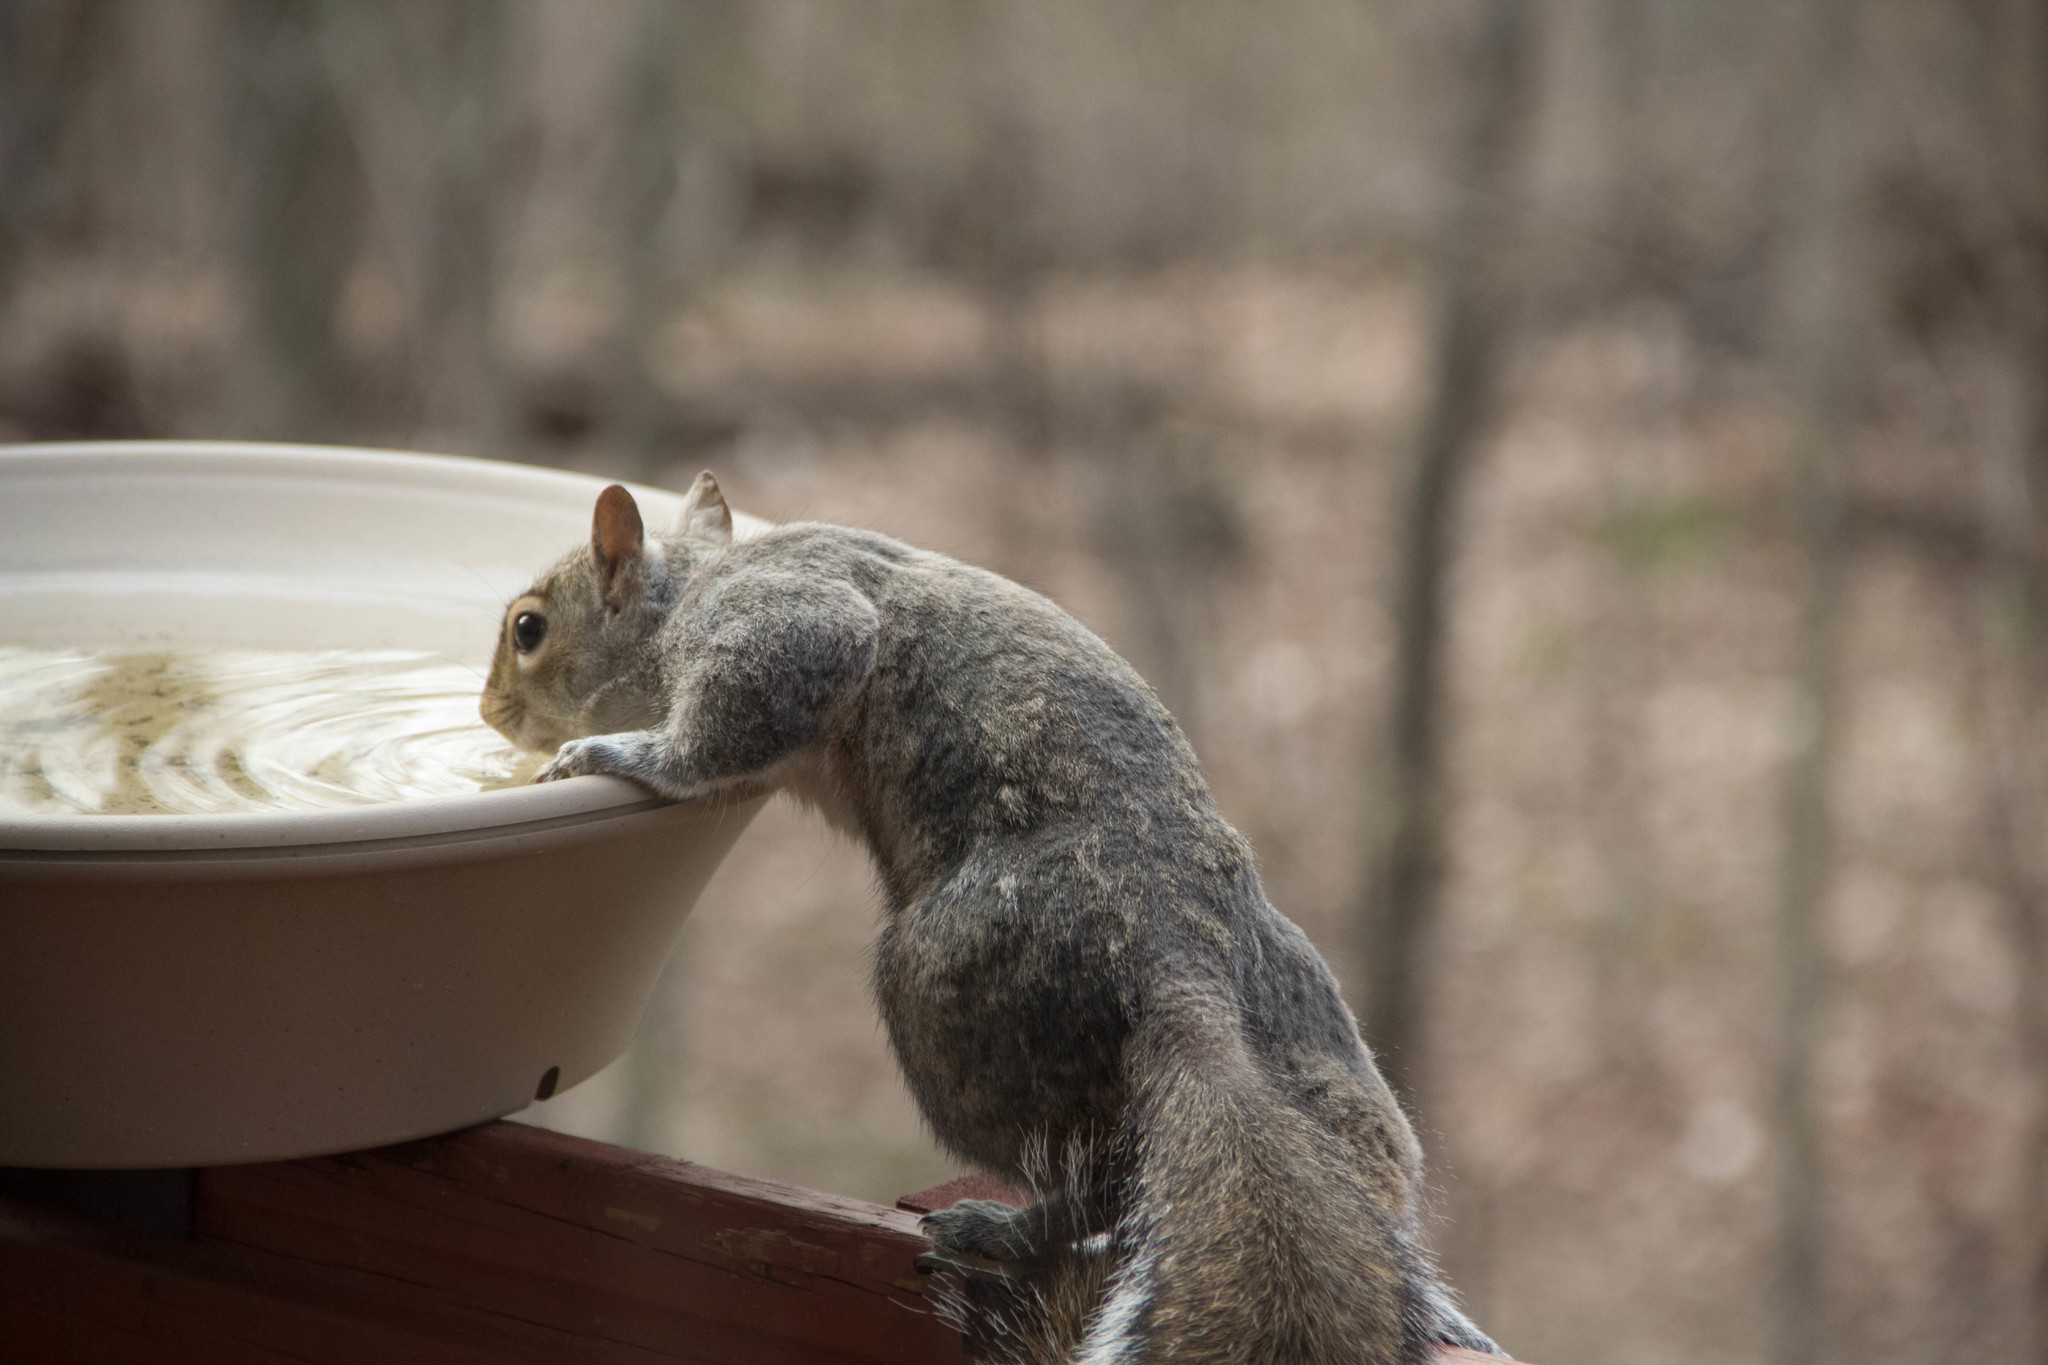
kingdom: Animalia
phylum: Chordata
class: Mammalia
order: Rodentia
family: Sciuridae
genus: Sciurus
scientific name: Sciurus carolinensis
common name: Eastern gray squirrel
